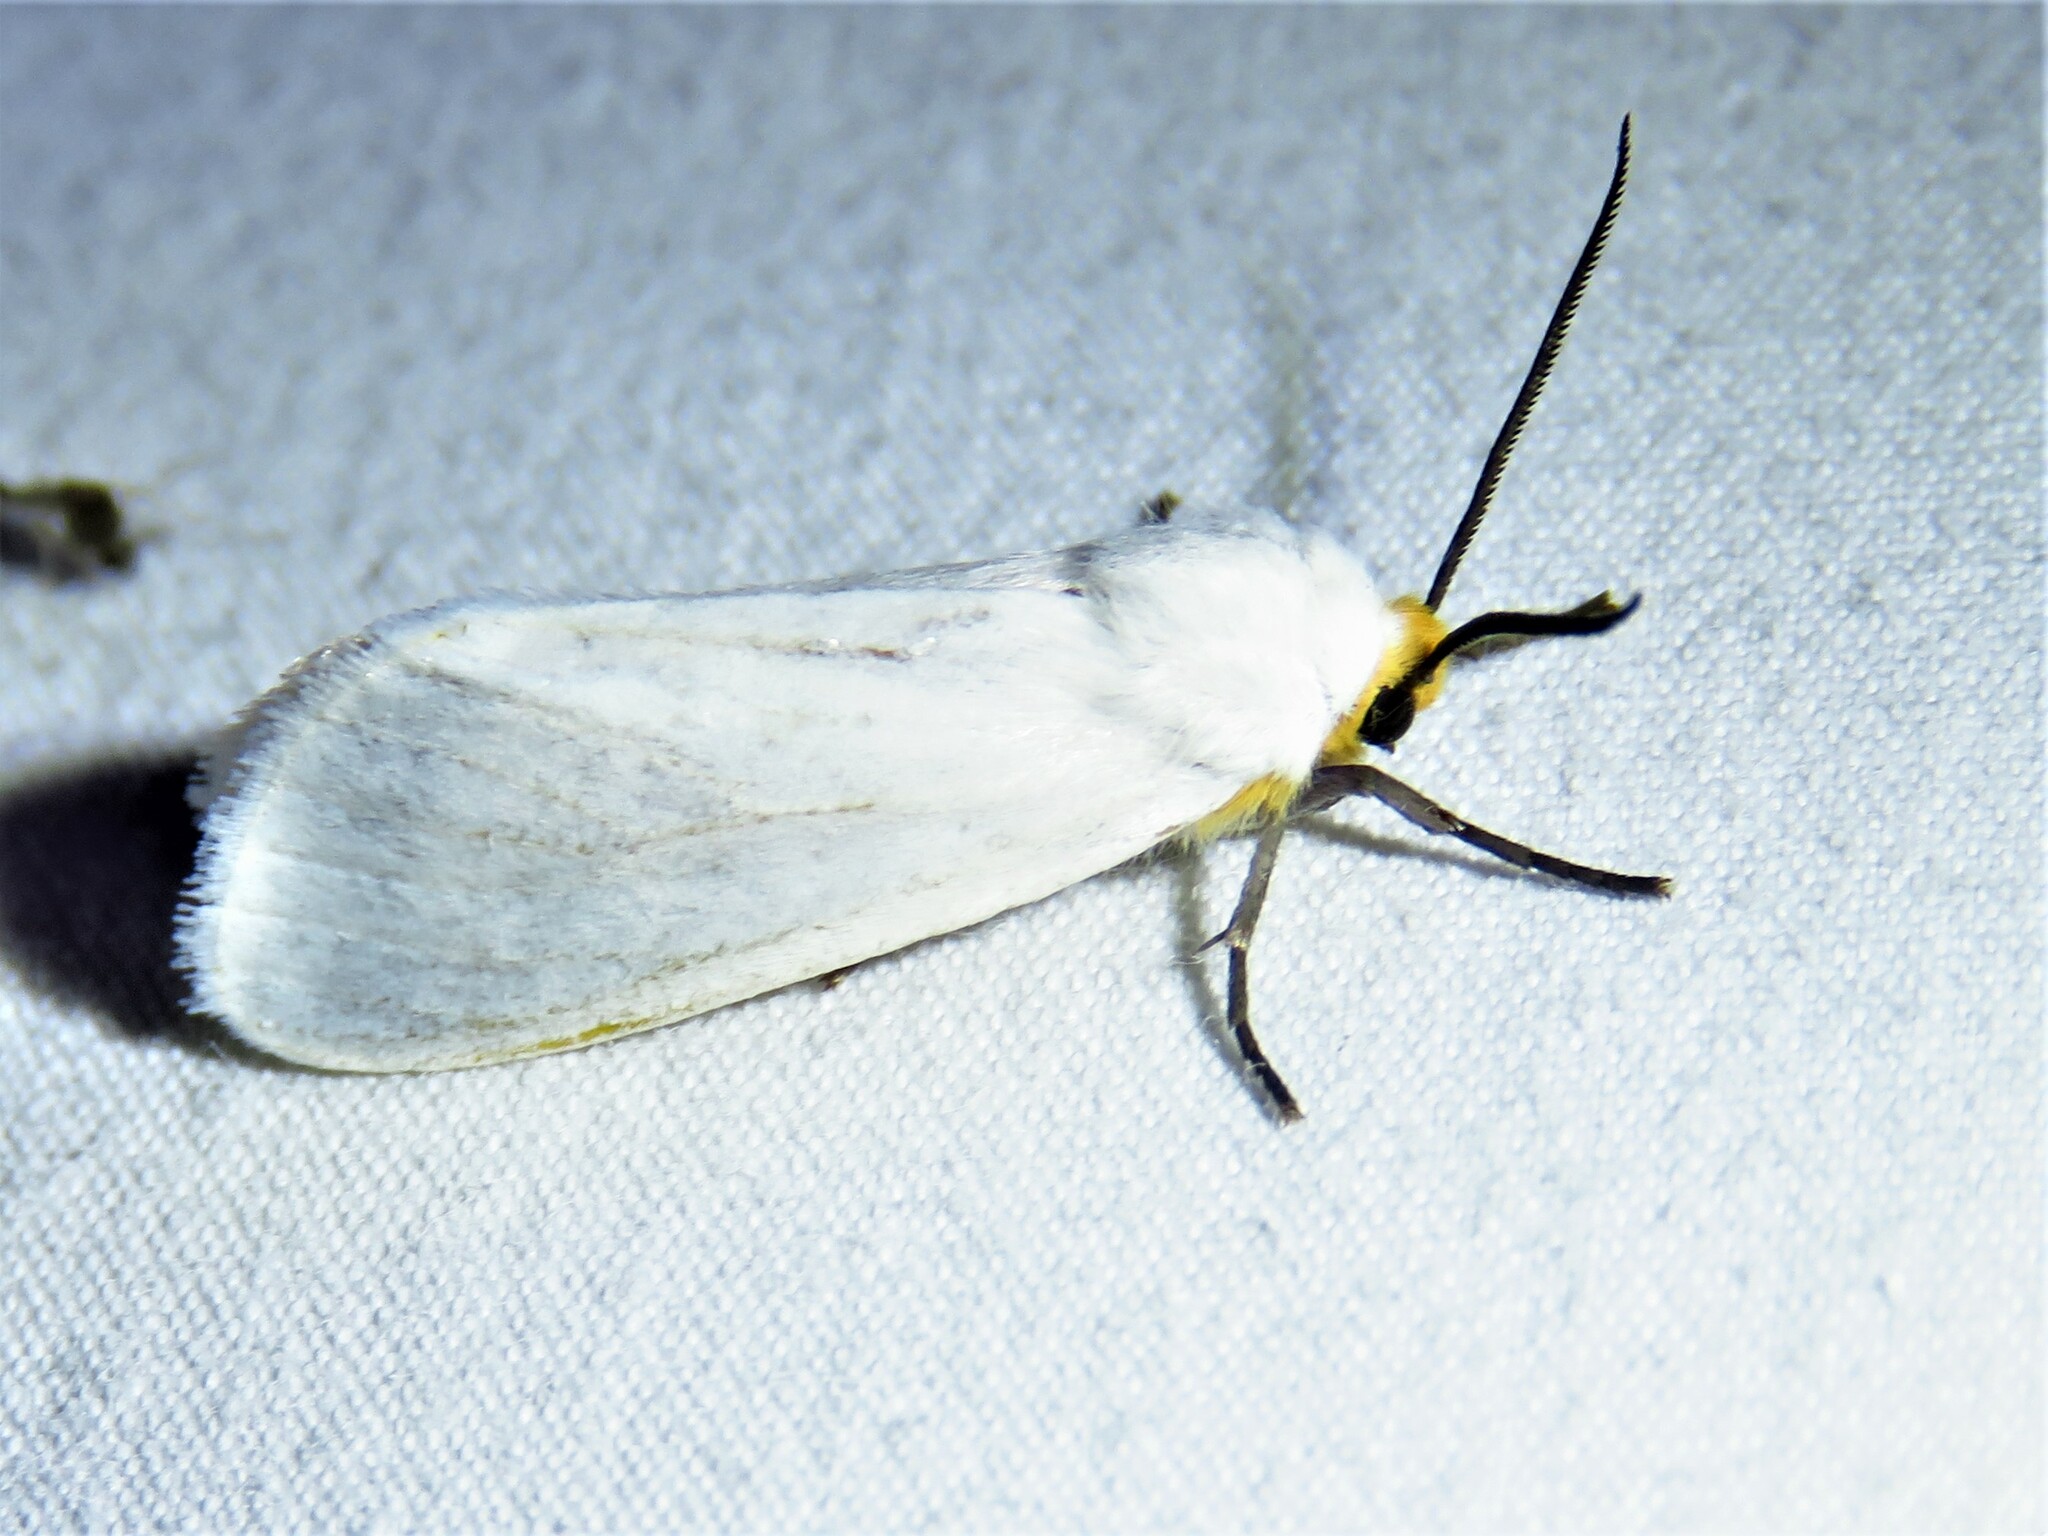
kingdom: Animalia
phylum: Arthropoda
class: Insecta
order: Lepidoptera
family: Erebidae
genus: Pygarctia
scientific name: Pygarctia flavidorsalis
